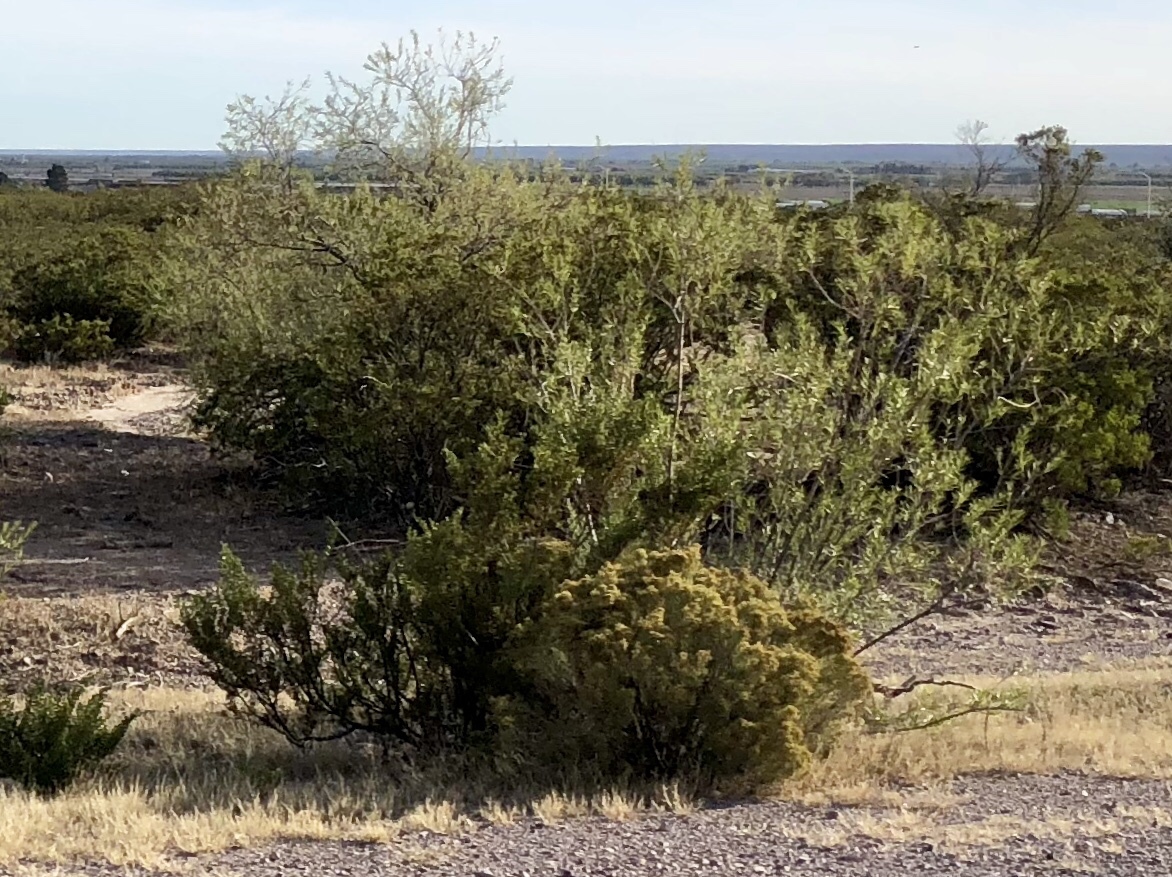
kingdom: Plantae
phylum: Tracheophyta
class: Magnoliopsida
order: Zygophyllales
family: Zygophyllaceae
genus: Larrea
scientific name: Larrea tridentata
